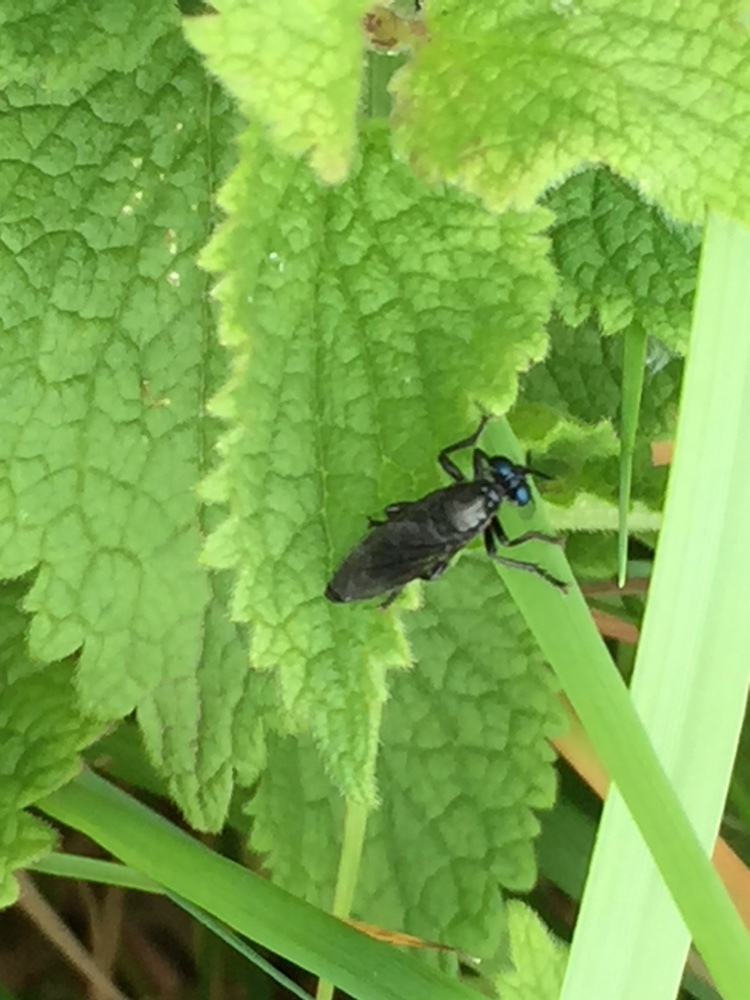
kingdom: Animalia
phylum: Arthropoda
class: Insecta
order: Diptera
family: Asilidae
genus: Dioctria
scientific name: Dioctria atricapilla
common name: Violet black-legged
